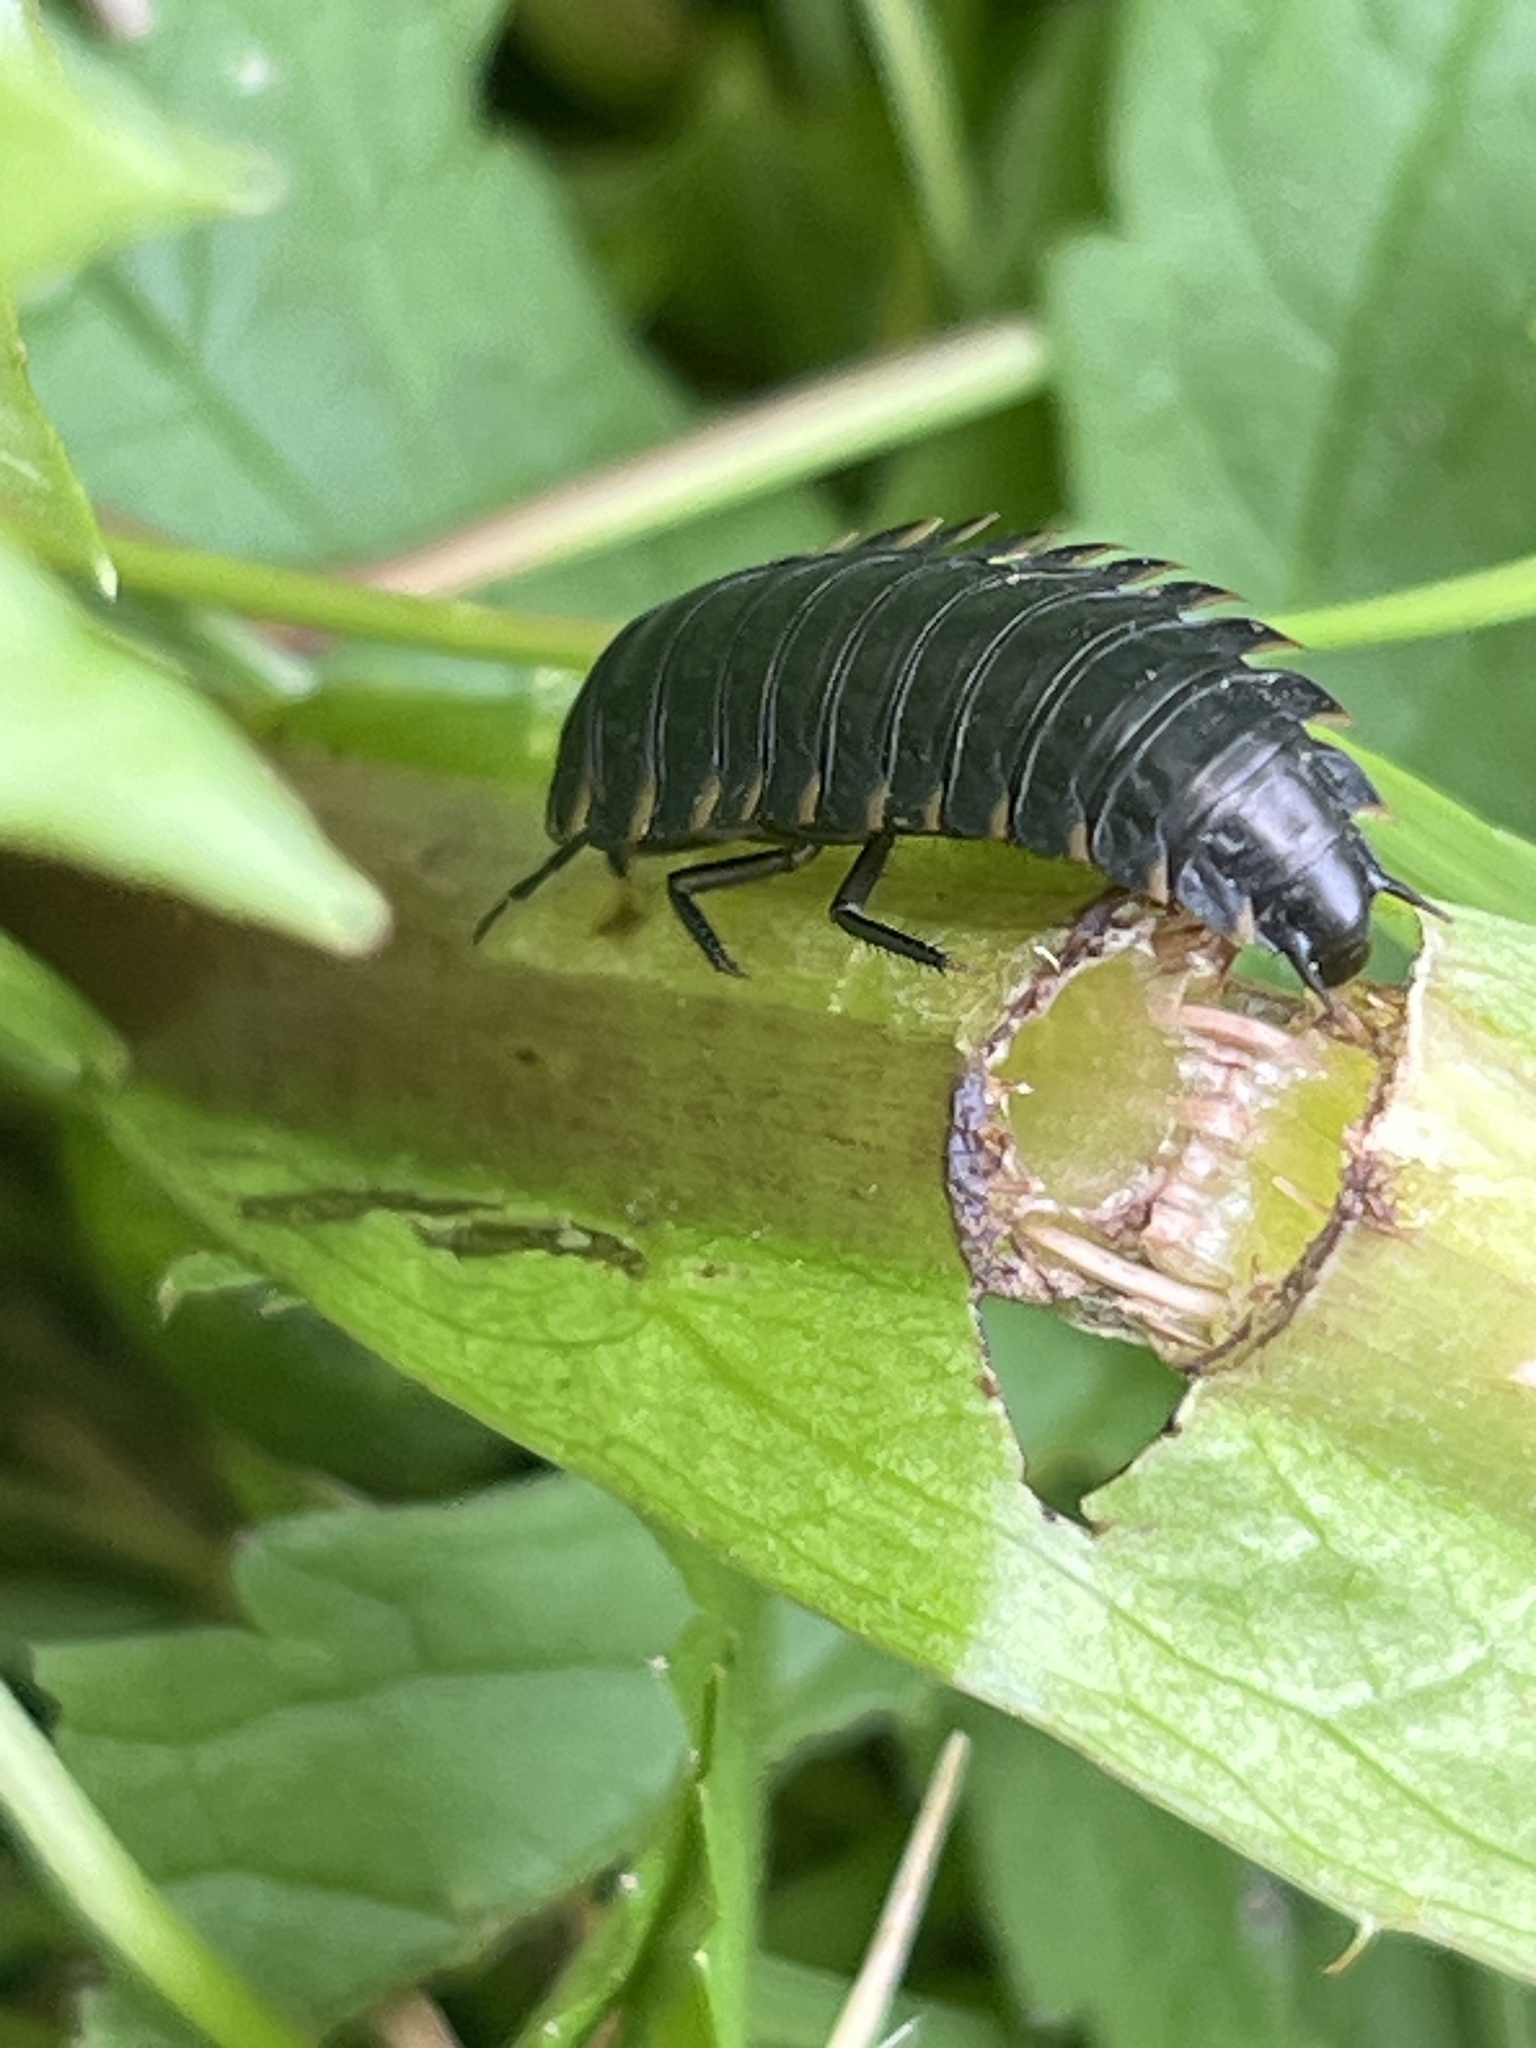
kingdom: Animalia
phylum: Arthropoda
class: Insecta
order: Coleoptera
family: Staphylinidae
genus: Silpha
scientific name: Silpha tristis
